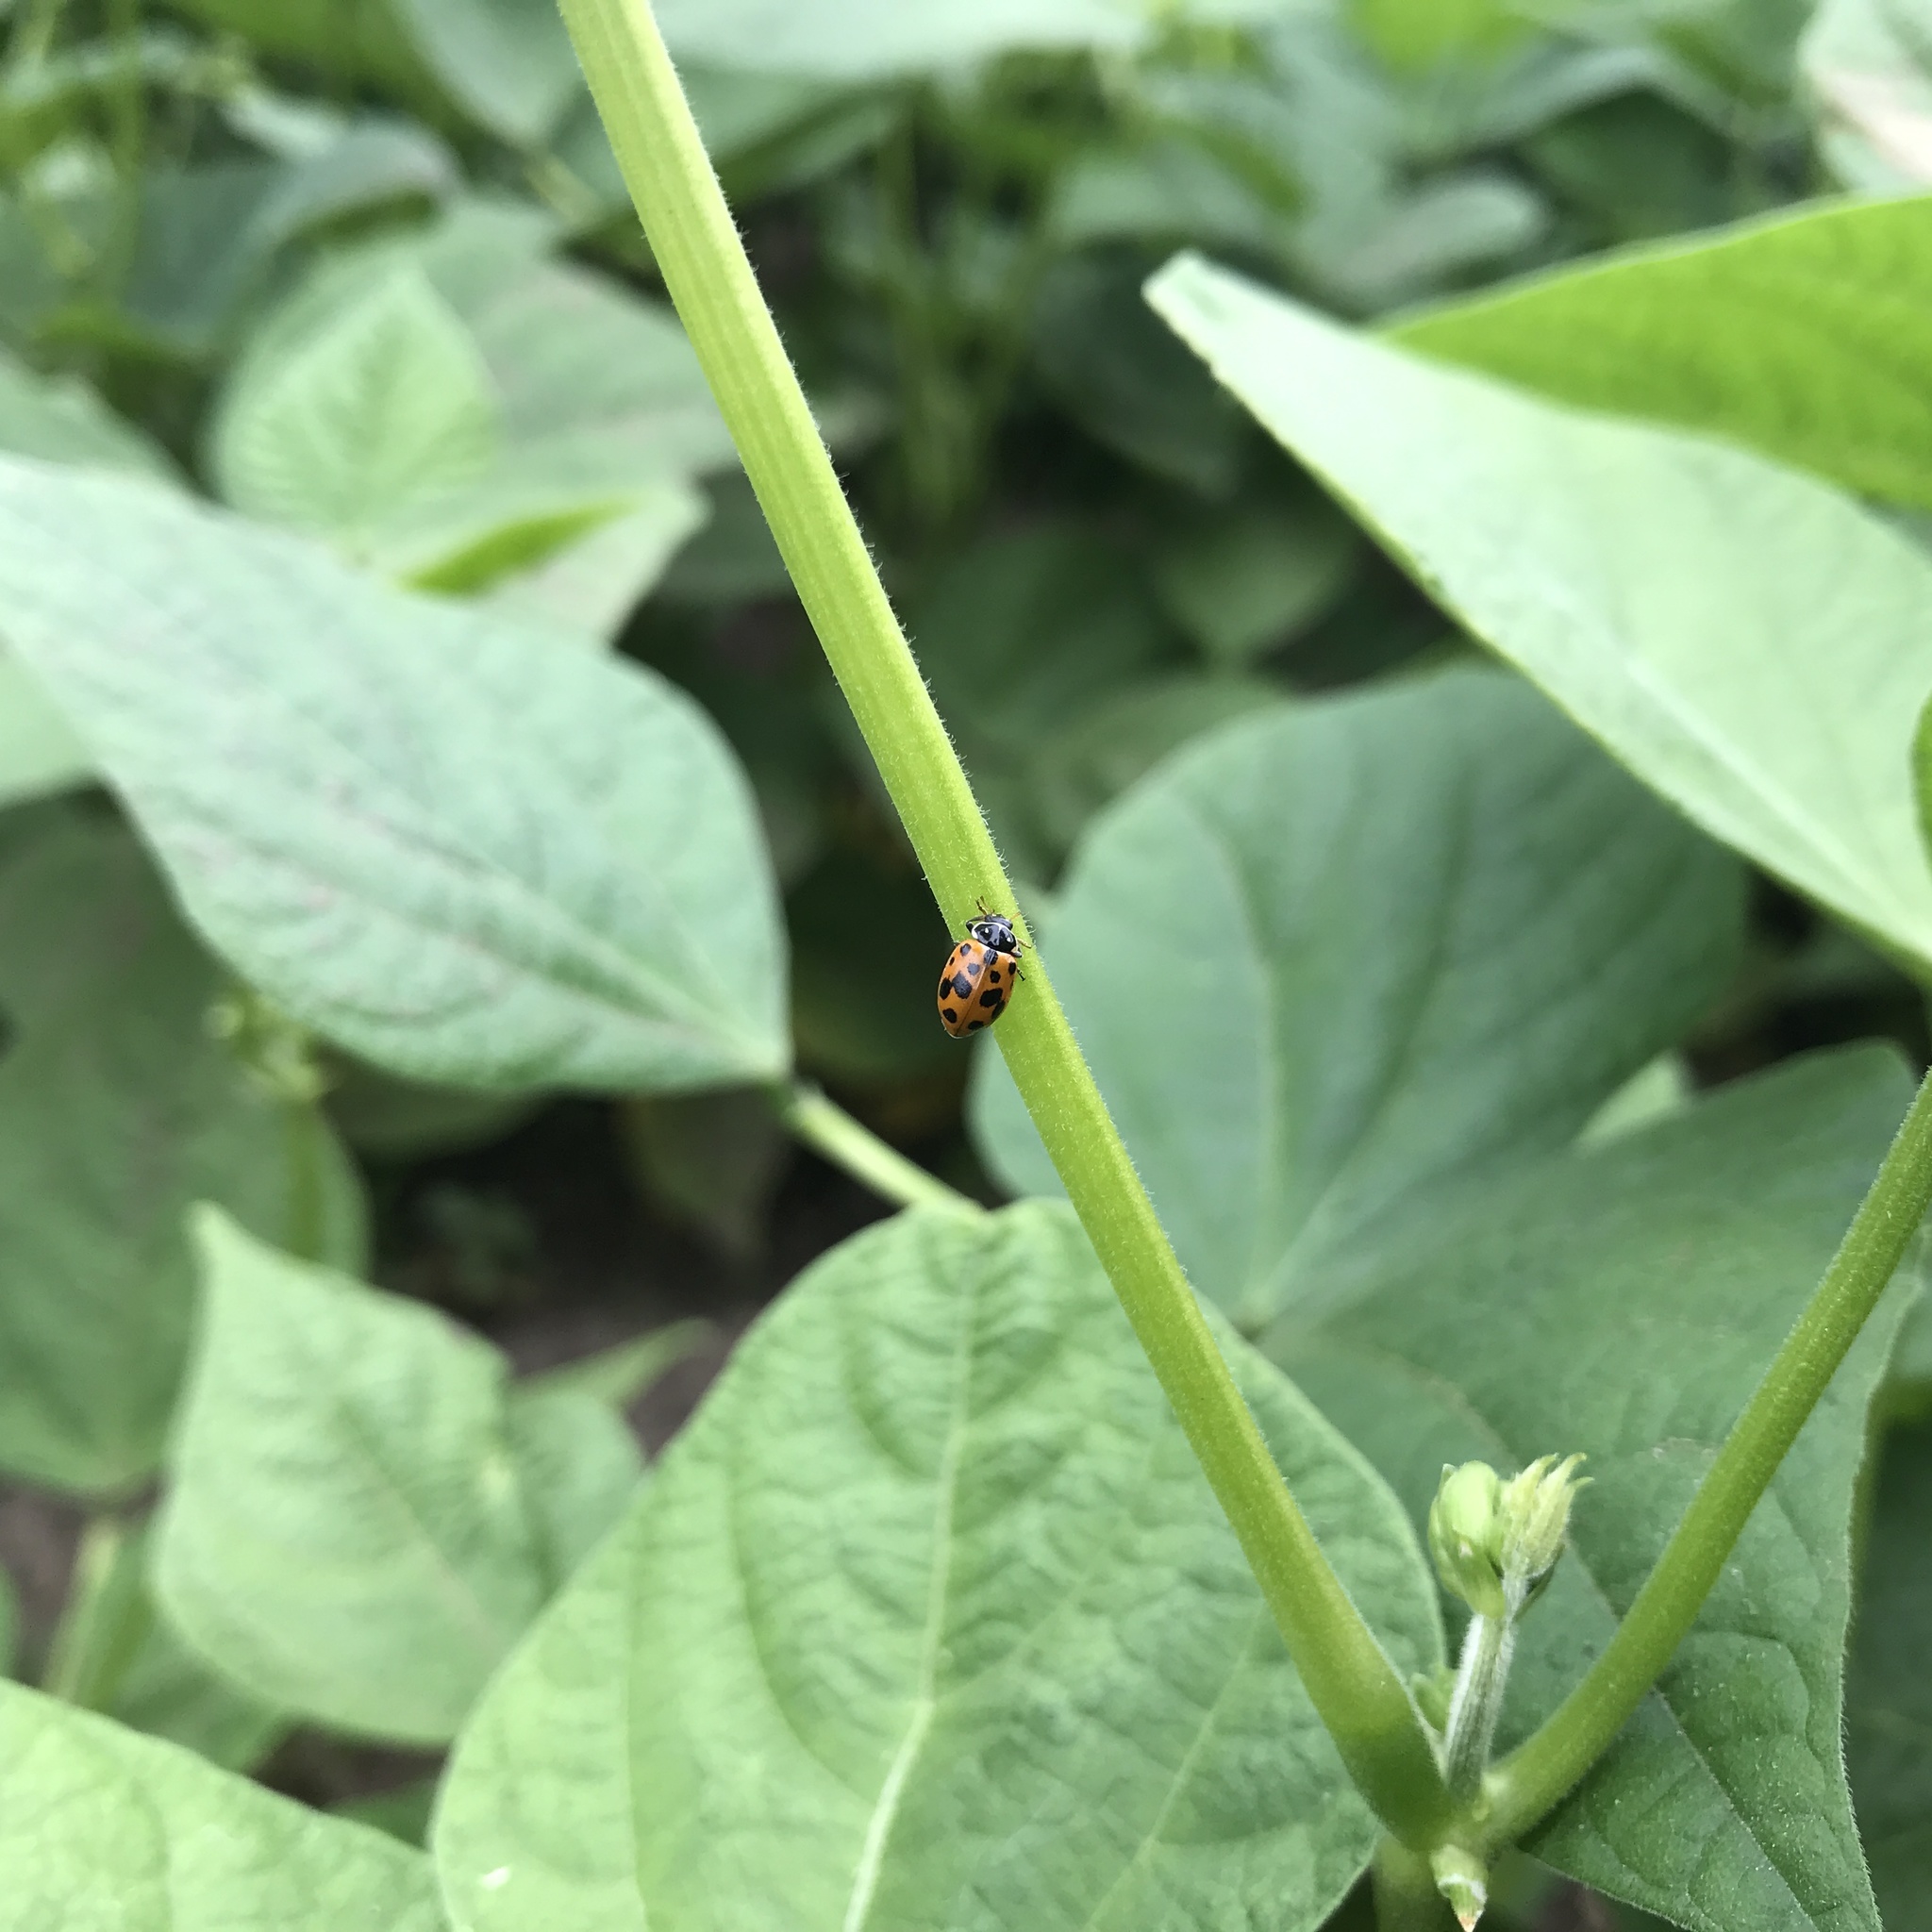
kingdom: Animalia
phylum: Arthropoda
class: Insecta
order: Coleoptera
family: Coccinellidae
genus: Hippodamia
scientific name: Hippodamia variegata
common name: Ladybird beetle
